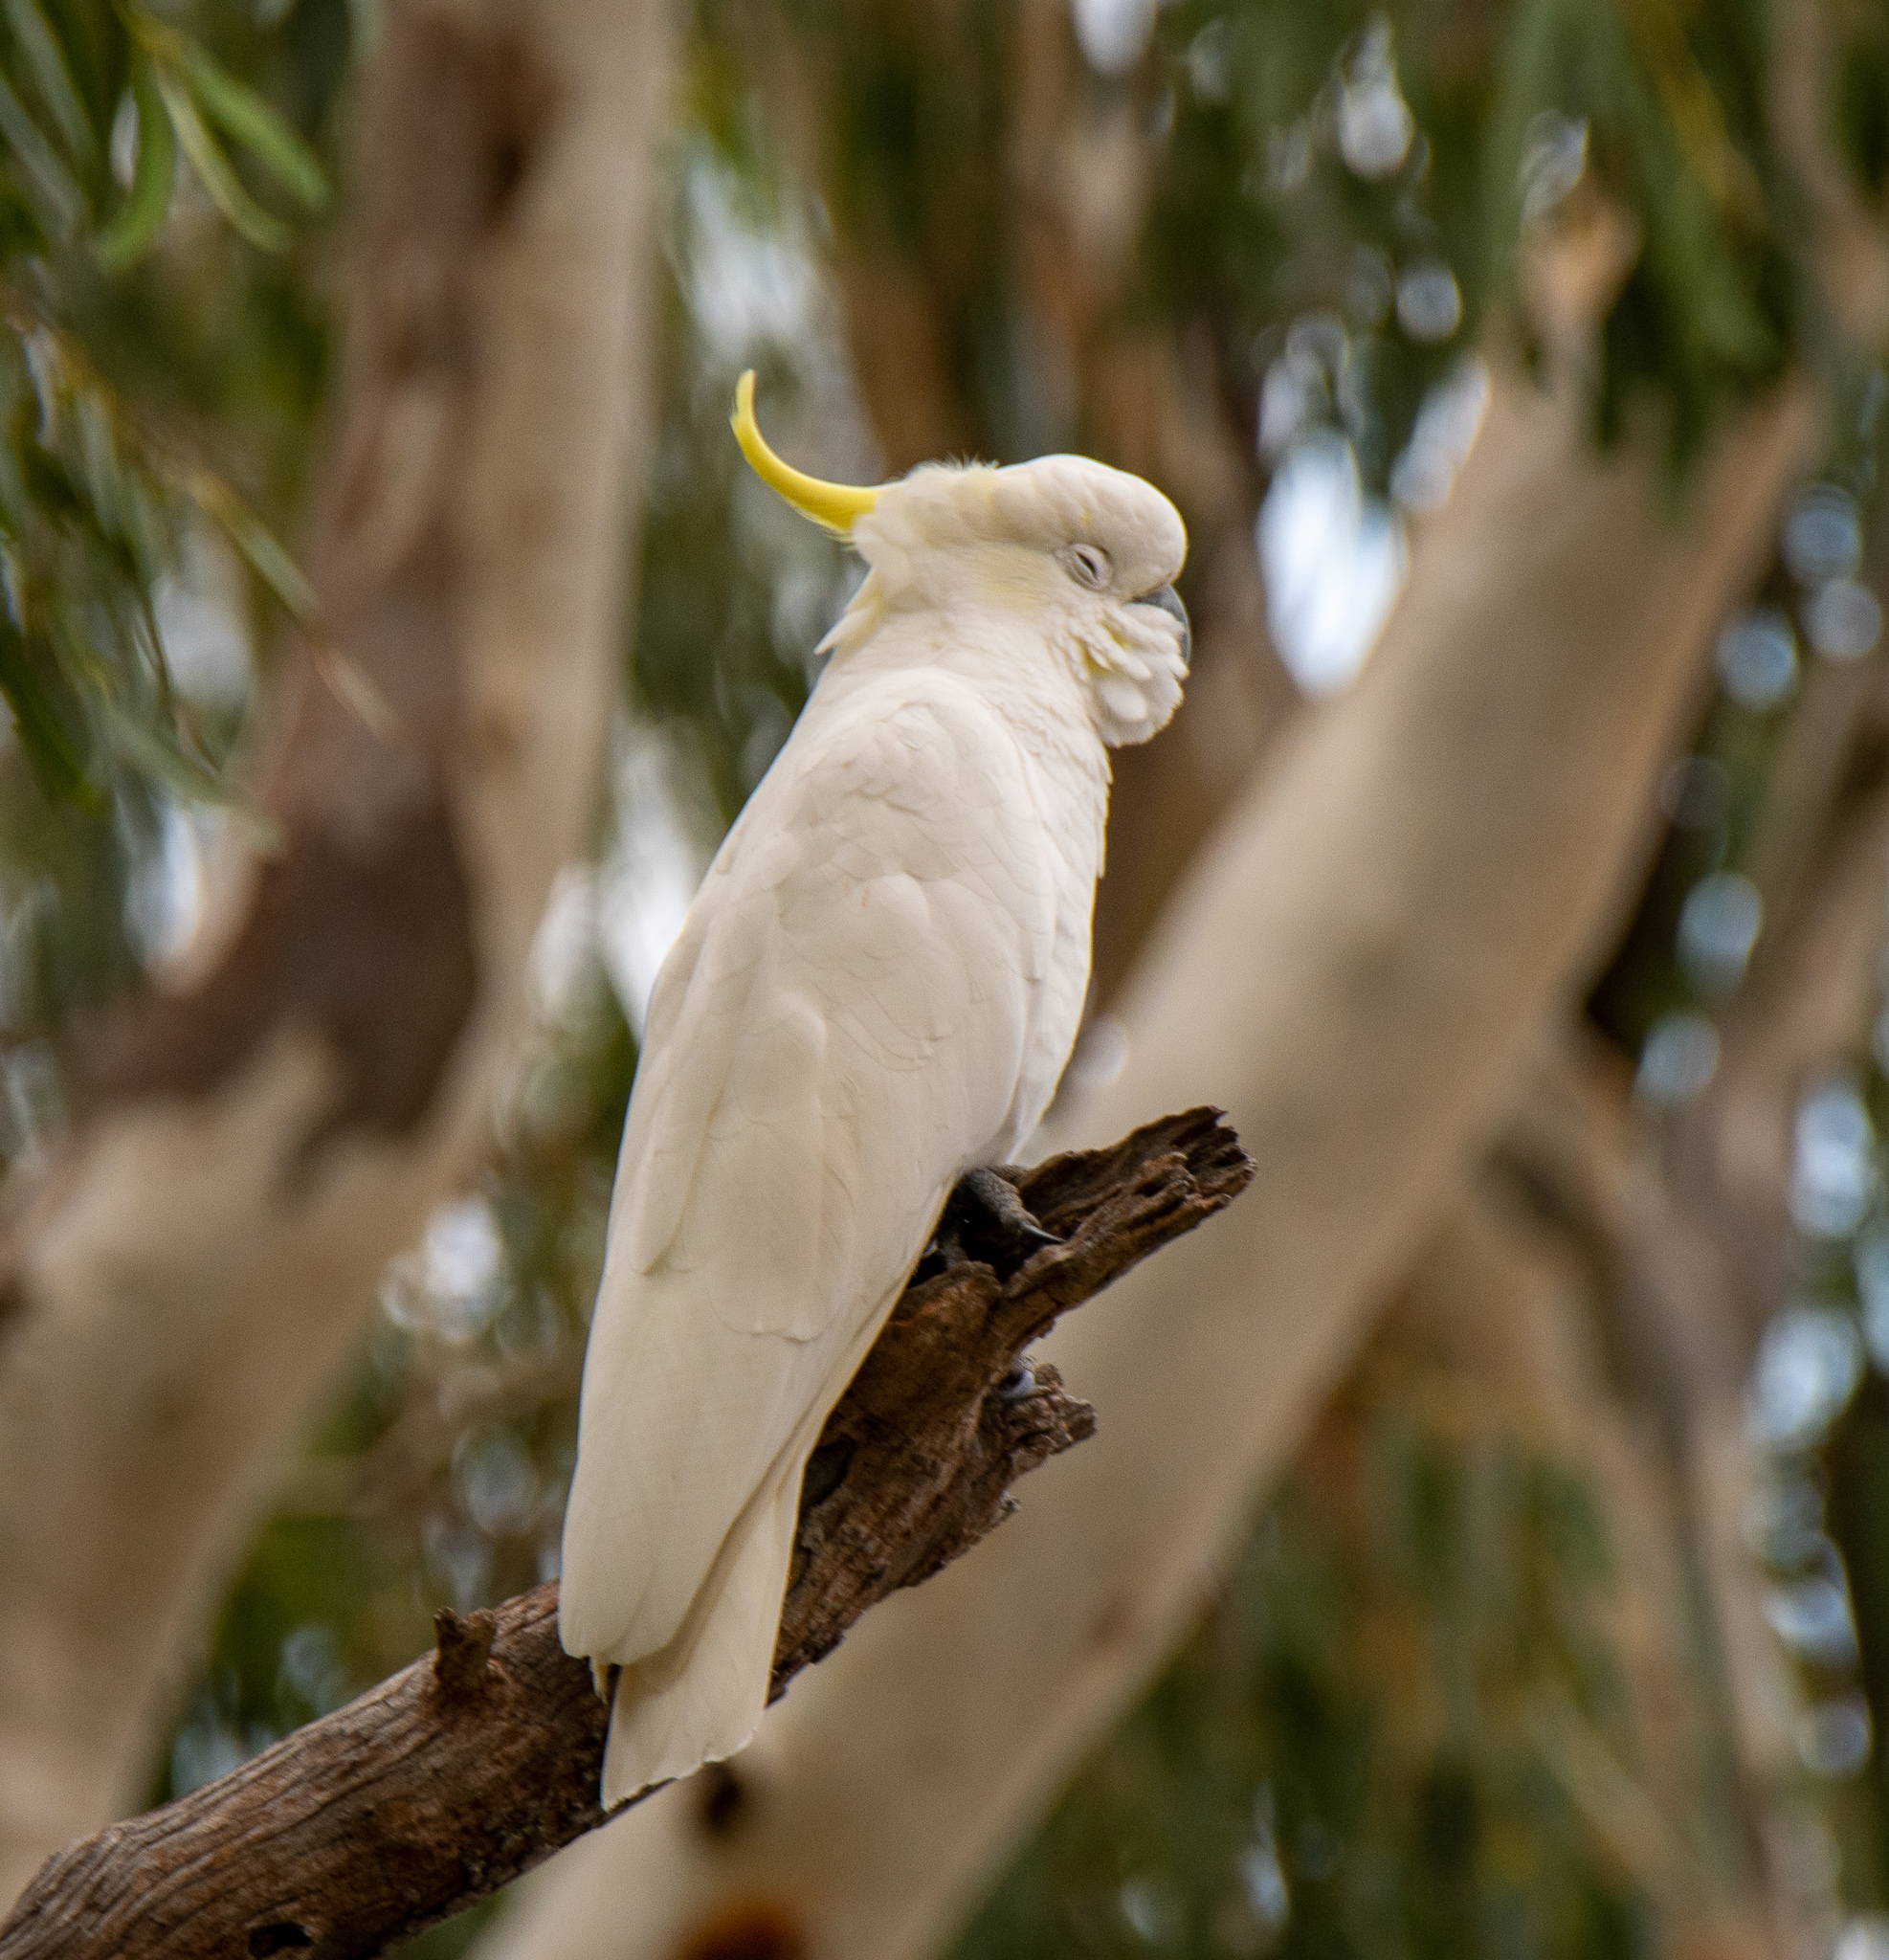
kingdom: Animalia
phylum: Chordata
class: Aves
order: Psittaciformes
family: Psittacidae
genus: Cacatua
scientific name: Cacatua galerita
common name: Sulphur-crested cockatoo
